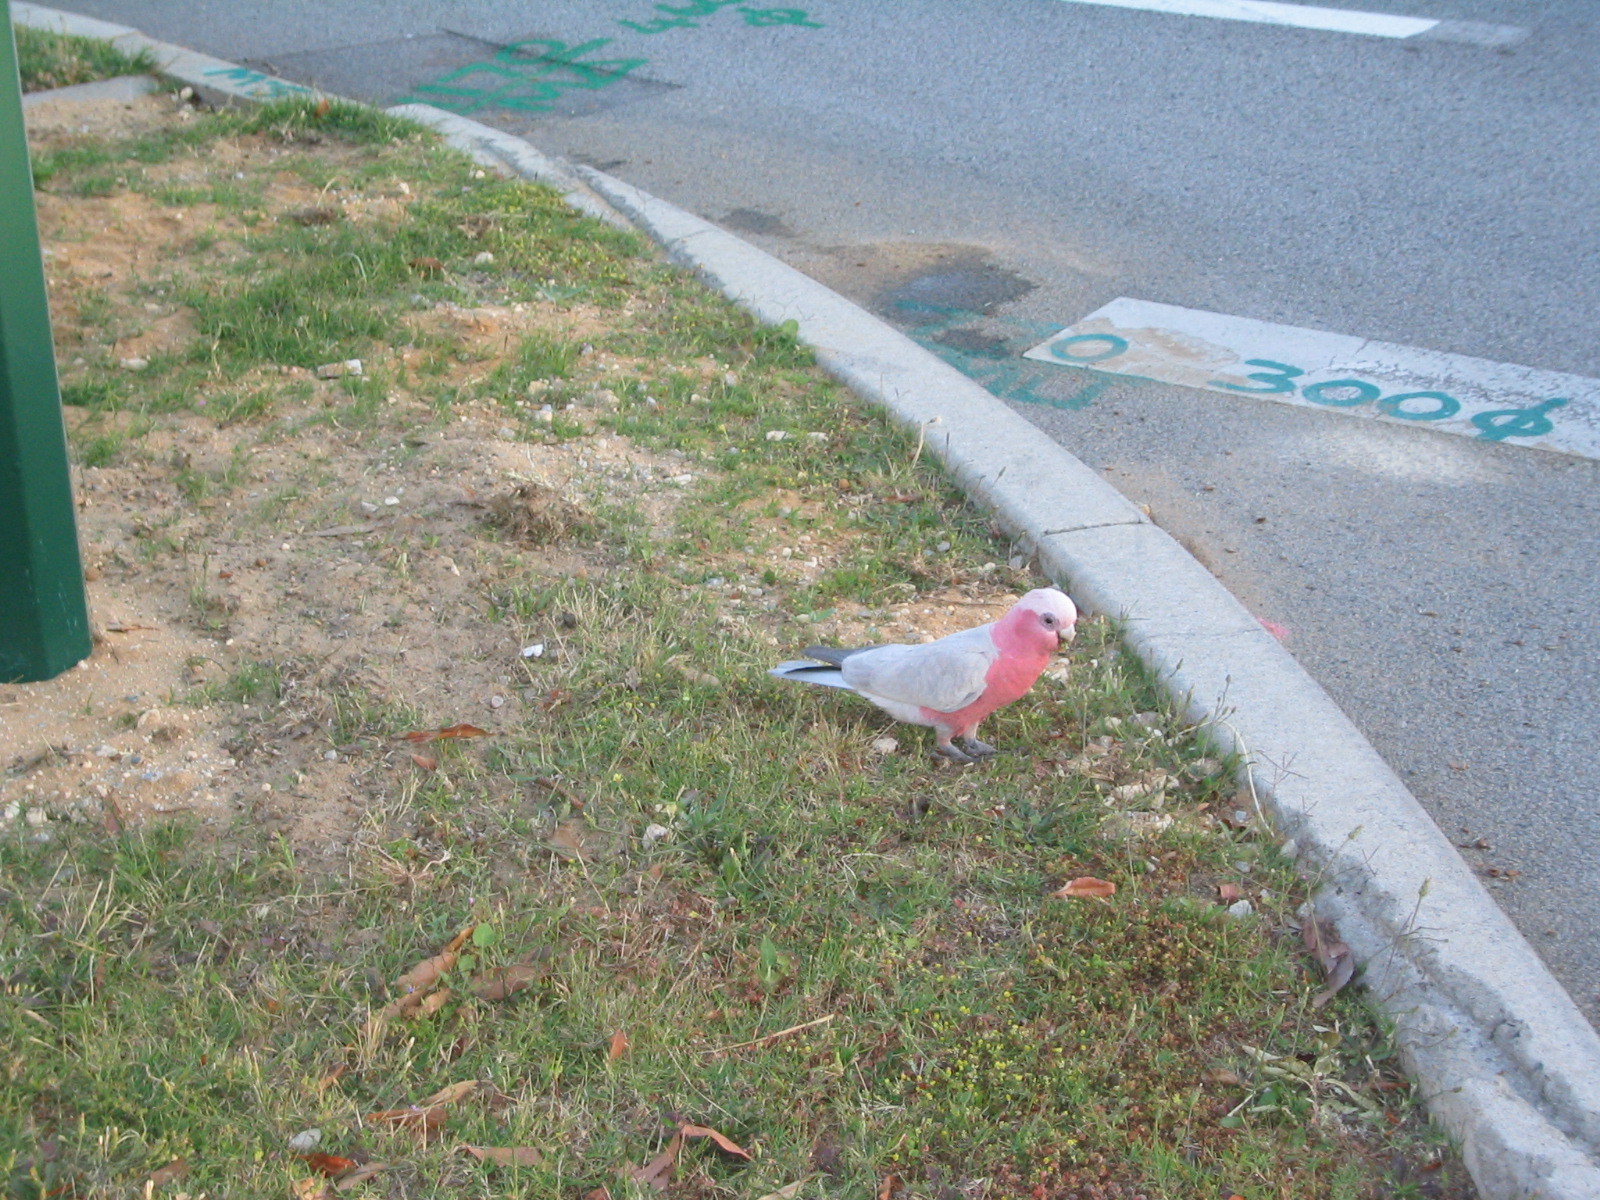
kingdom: Animalia
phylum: Chordata
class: Aves
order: Psittaciformes
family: Psittacidae
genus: Eolophus
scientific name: Eolophus roseicapilla
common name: Galah
